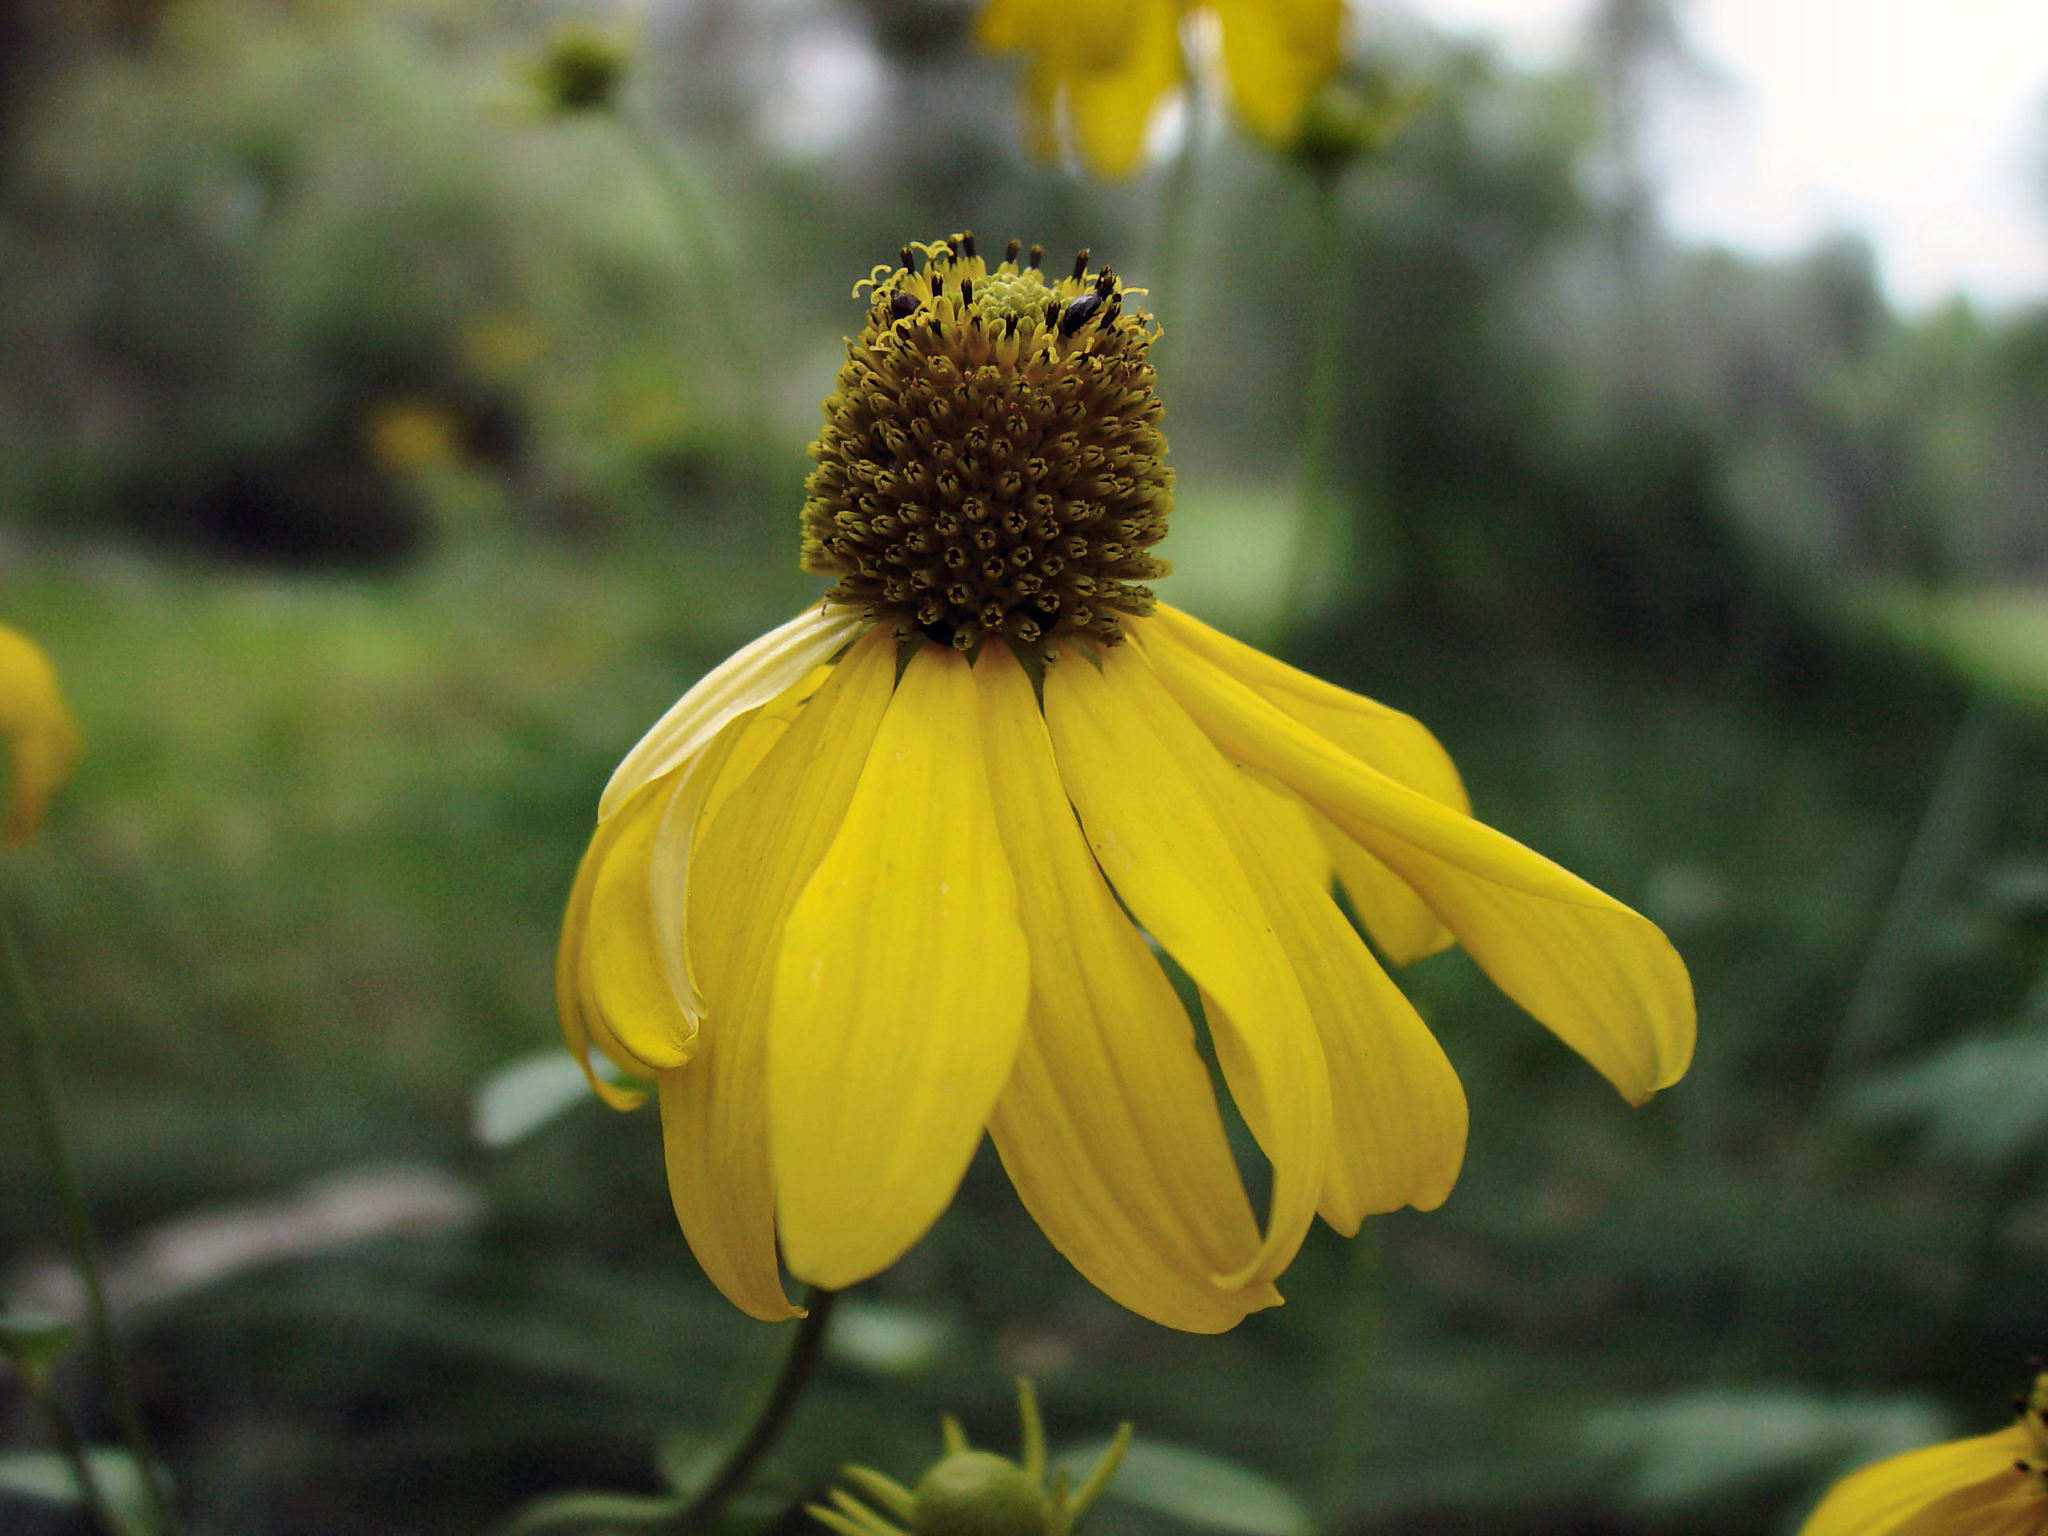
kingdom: Plantae
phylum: Tracheophyta
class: Magnoliopsida
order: Asterales
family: Asteraceae
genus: Rudbeckia
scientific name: Rudbeckia laciniata
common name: Coneflower
